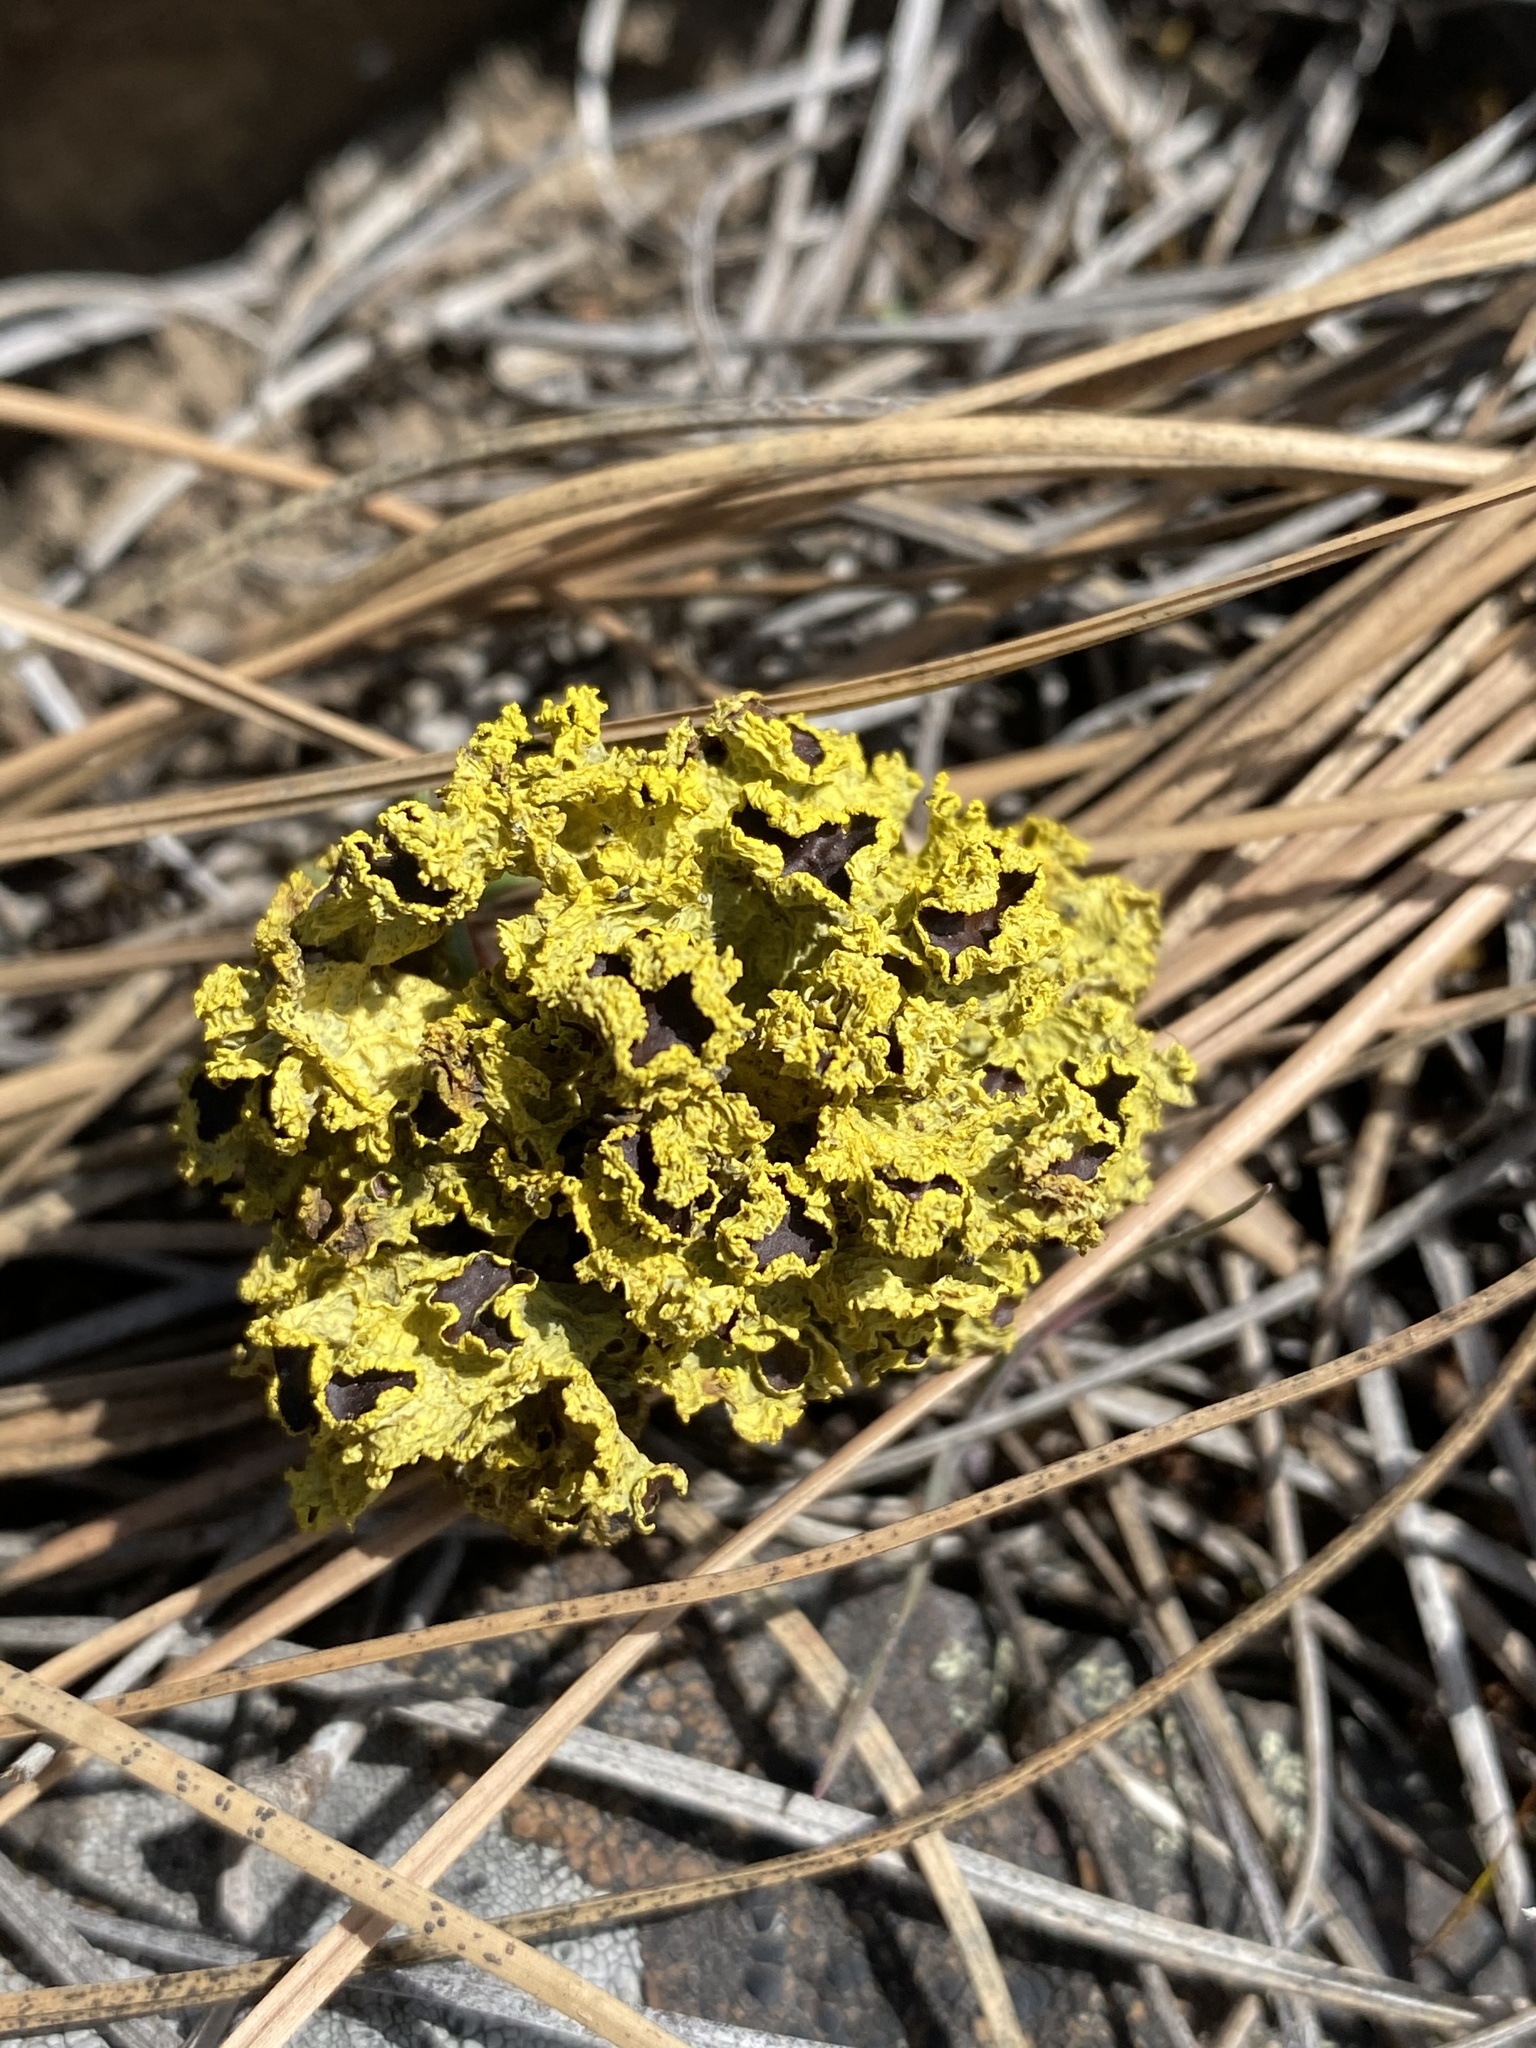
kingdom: Fungi
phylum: Ascomycota
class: Lecanoromycetes
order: Lecanorales
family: Parmeliaceae
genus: Vulpicida
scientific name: Vulpicida canadensis
